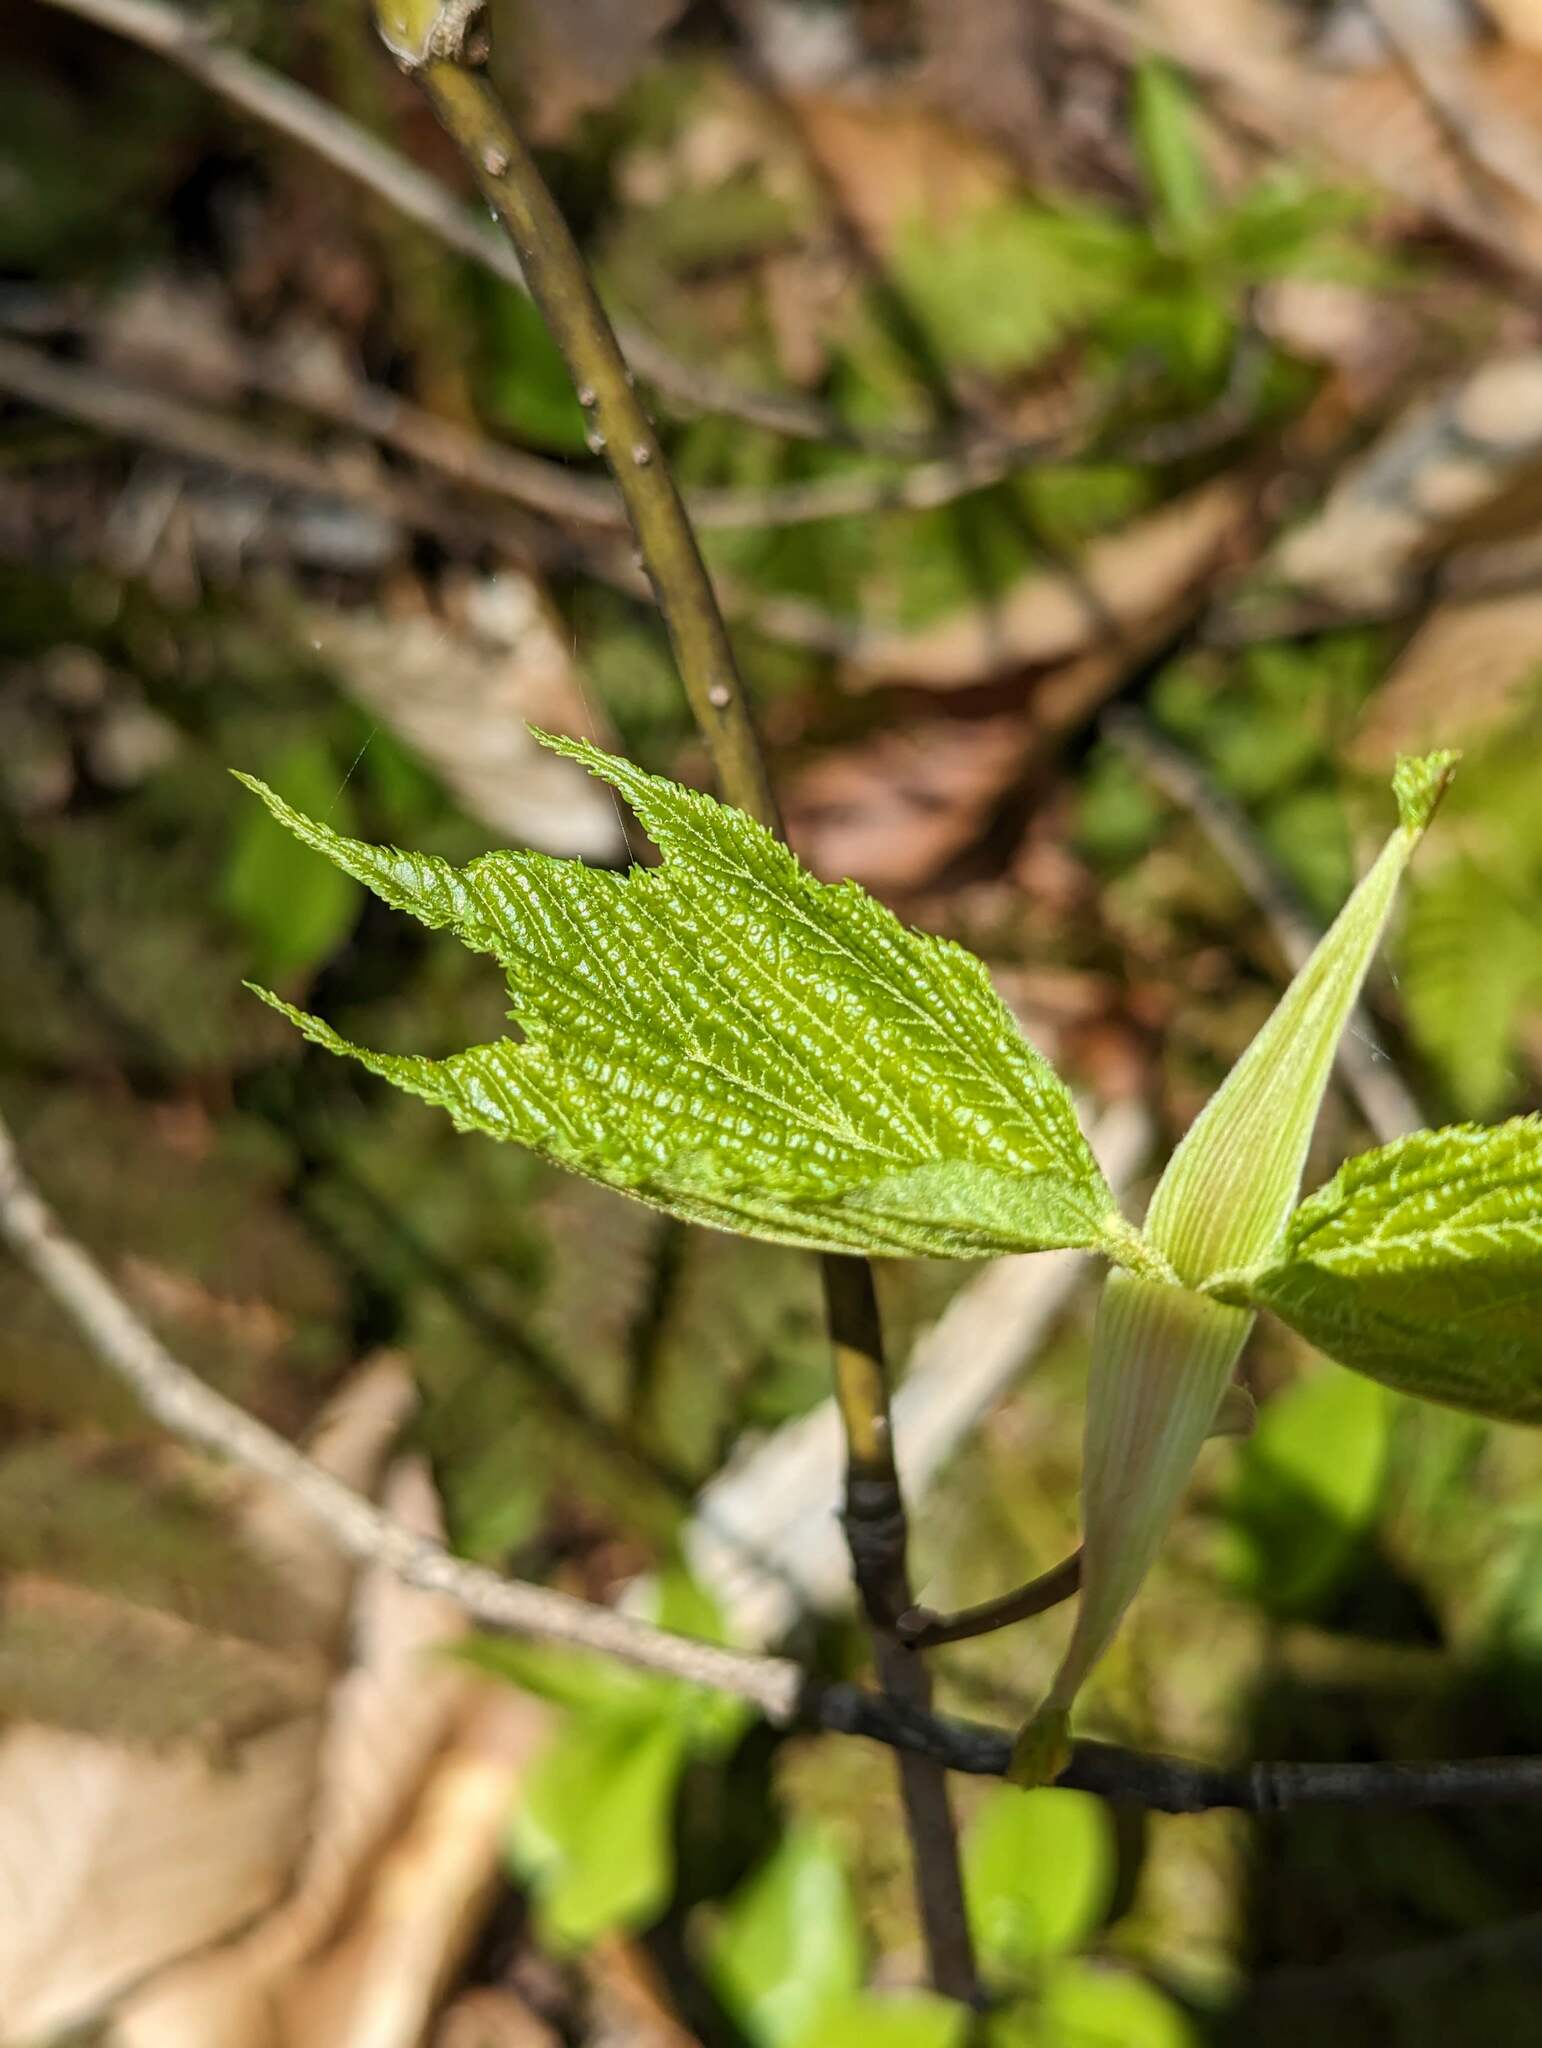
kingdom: Plantae
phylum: Tracheophyta
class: Magnoliopsida
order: Sapindales
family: Sapindaceae
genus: Acer
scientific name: Acer pensylvanicum
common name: Moosewood
